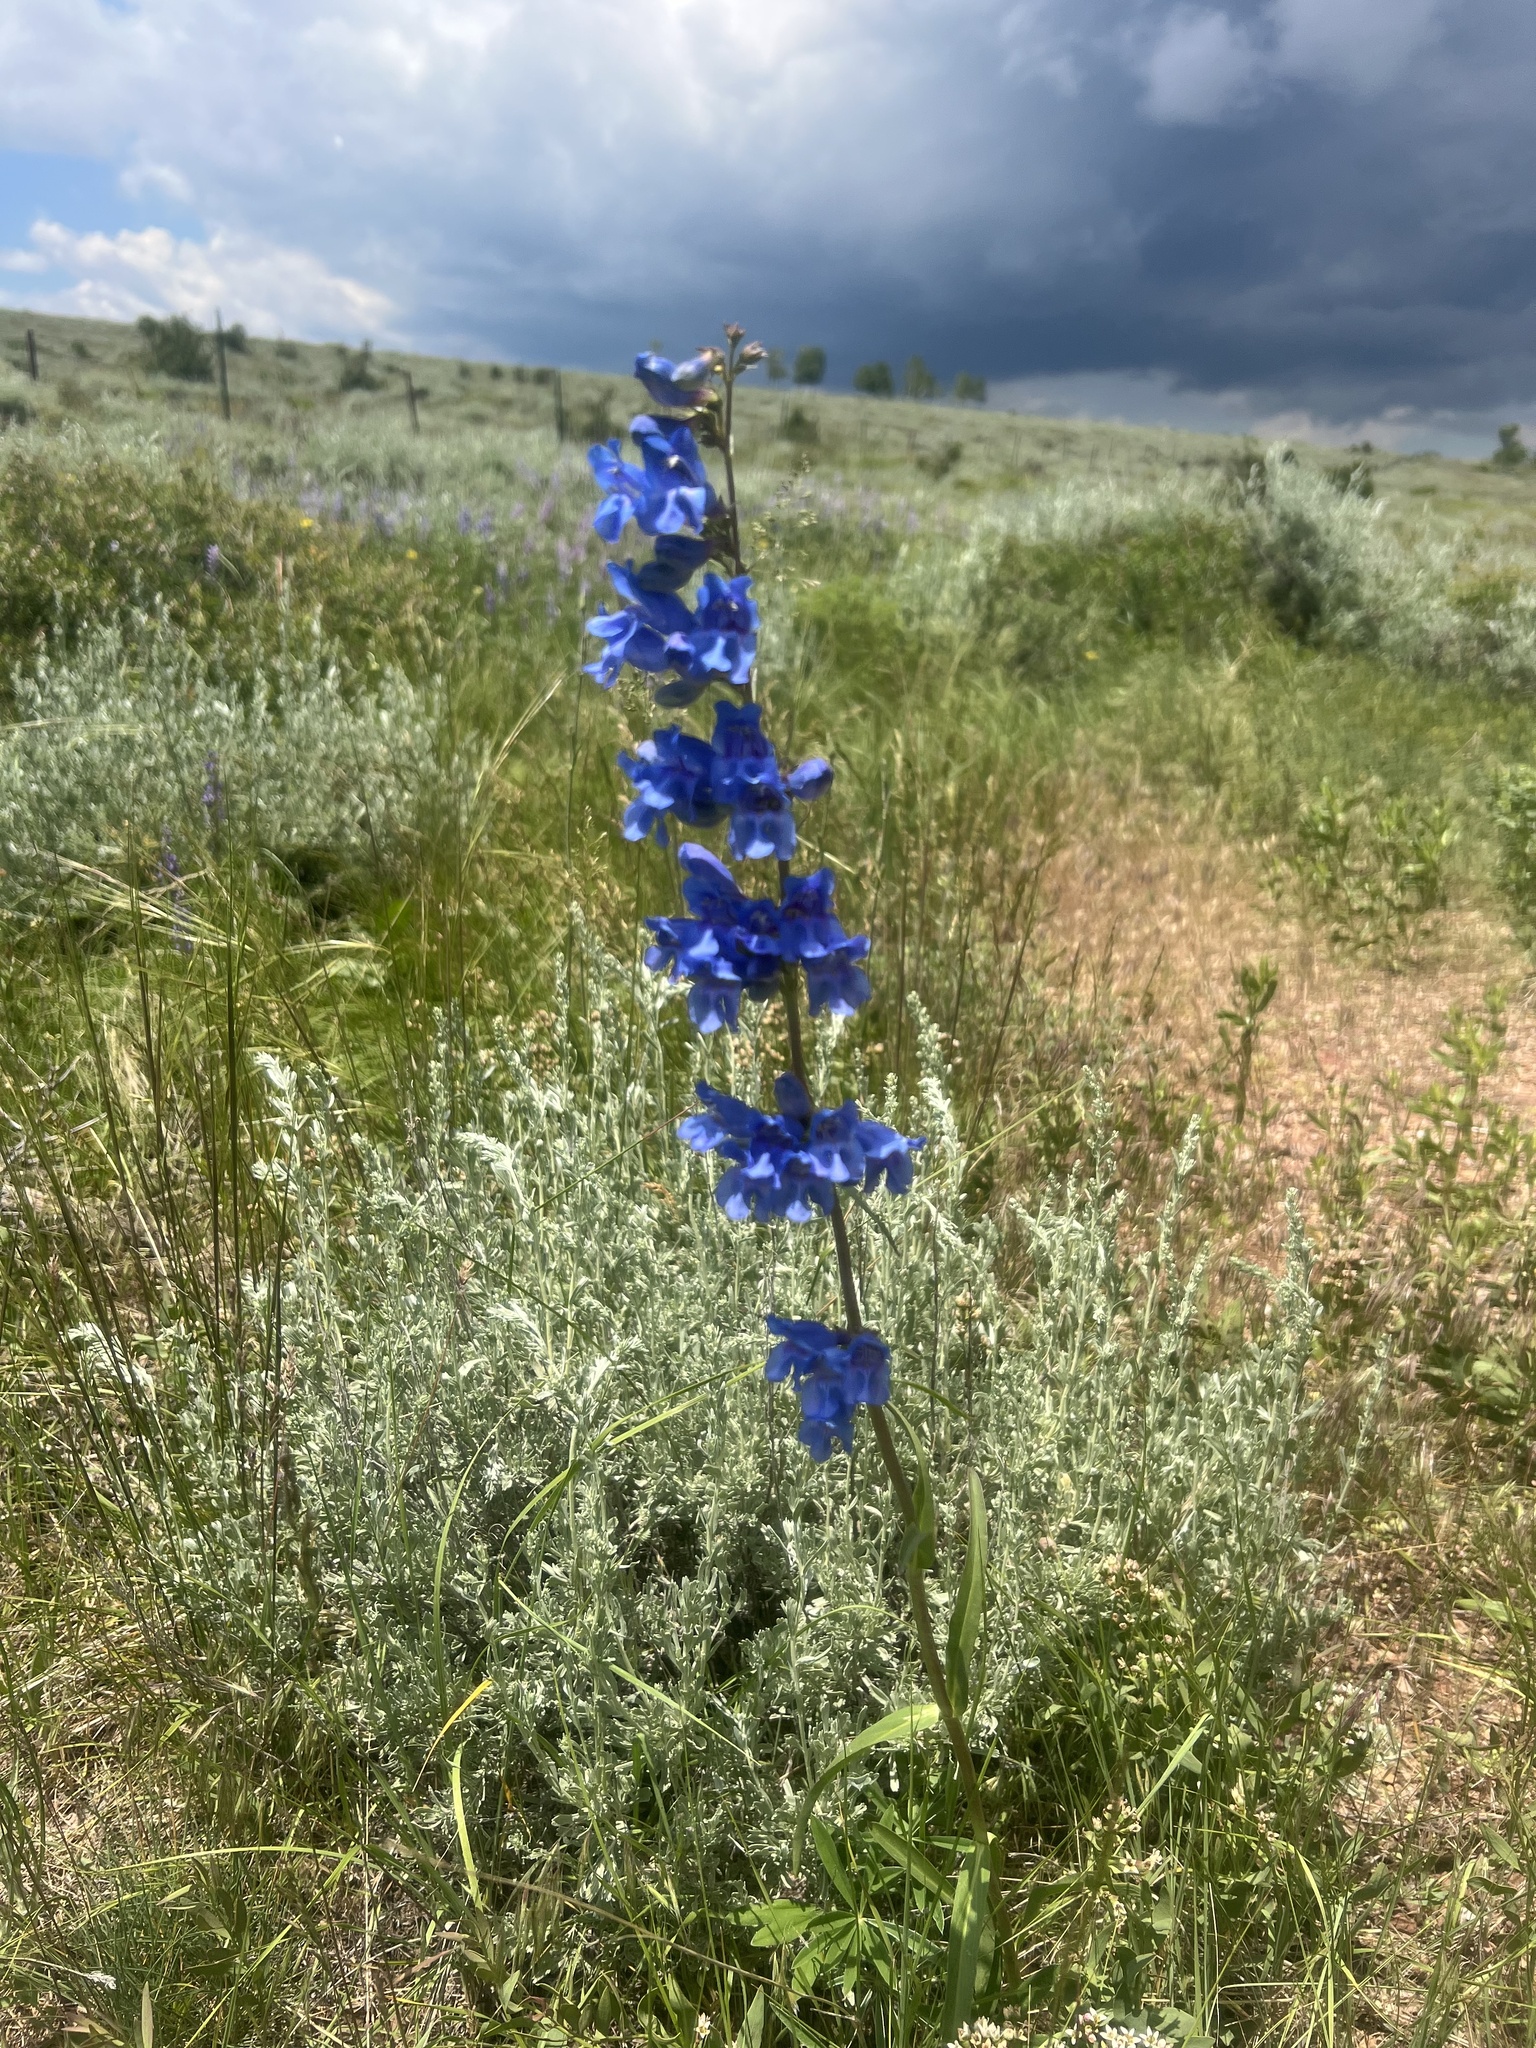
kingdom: Plantae
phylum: Tracheophyta
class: Magnoliopsida
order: Lamiales
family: Plantaginaceae
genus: Penstemon
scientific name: Penstemon strictus
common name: Rocky mountain penstemon
